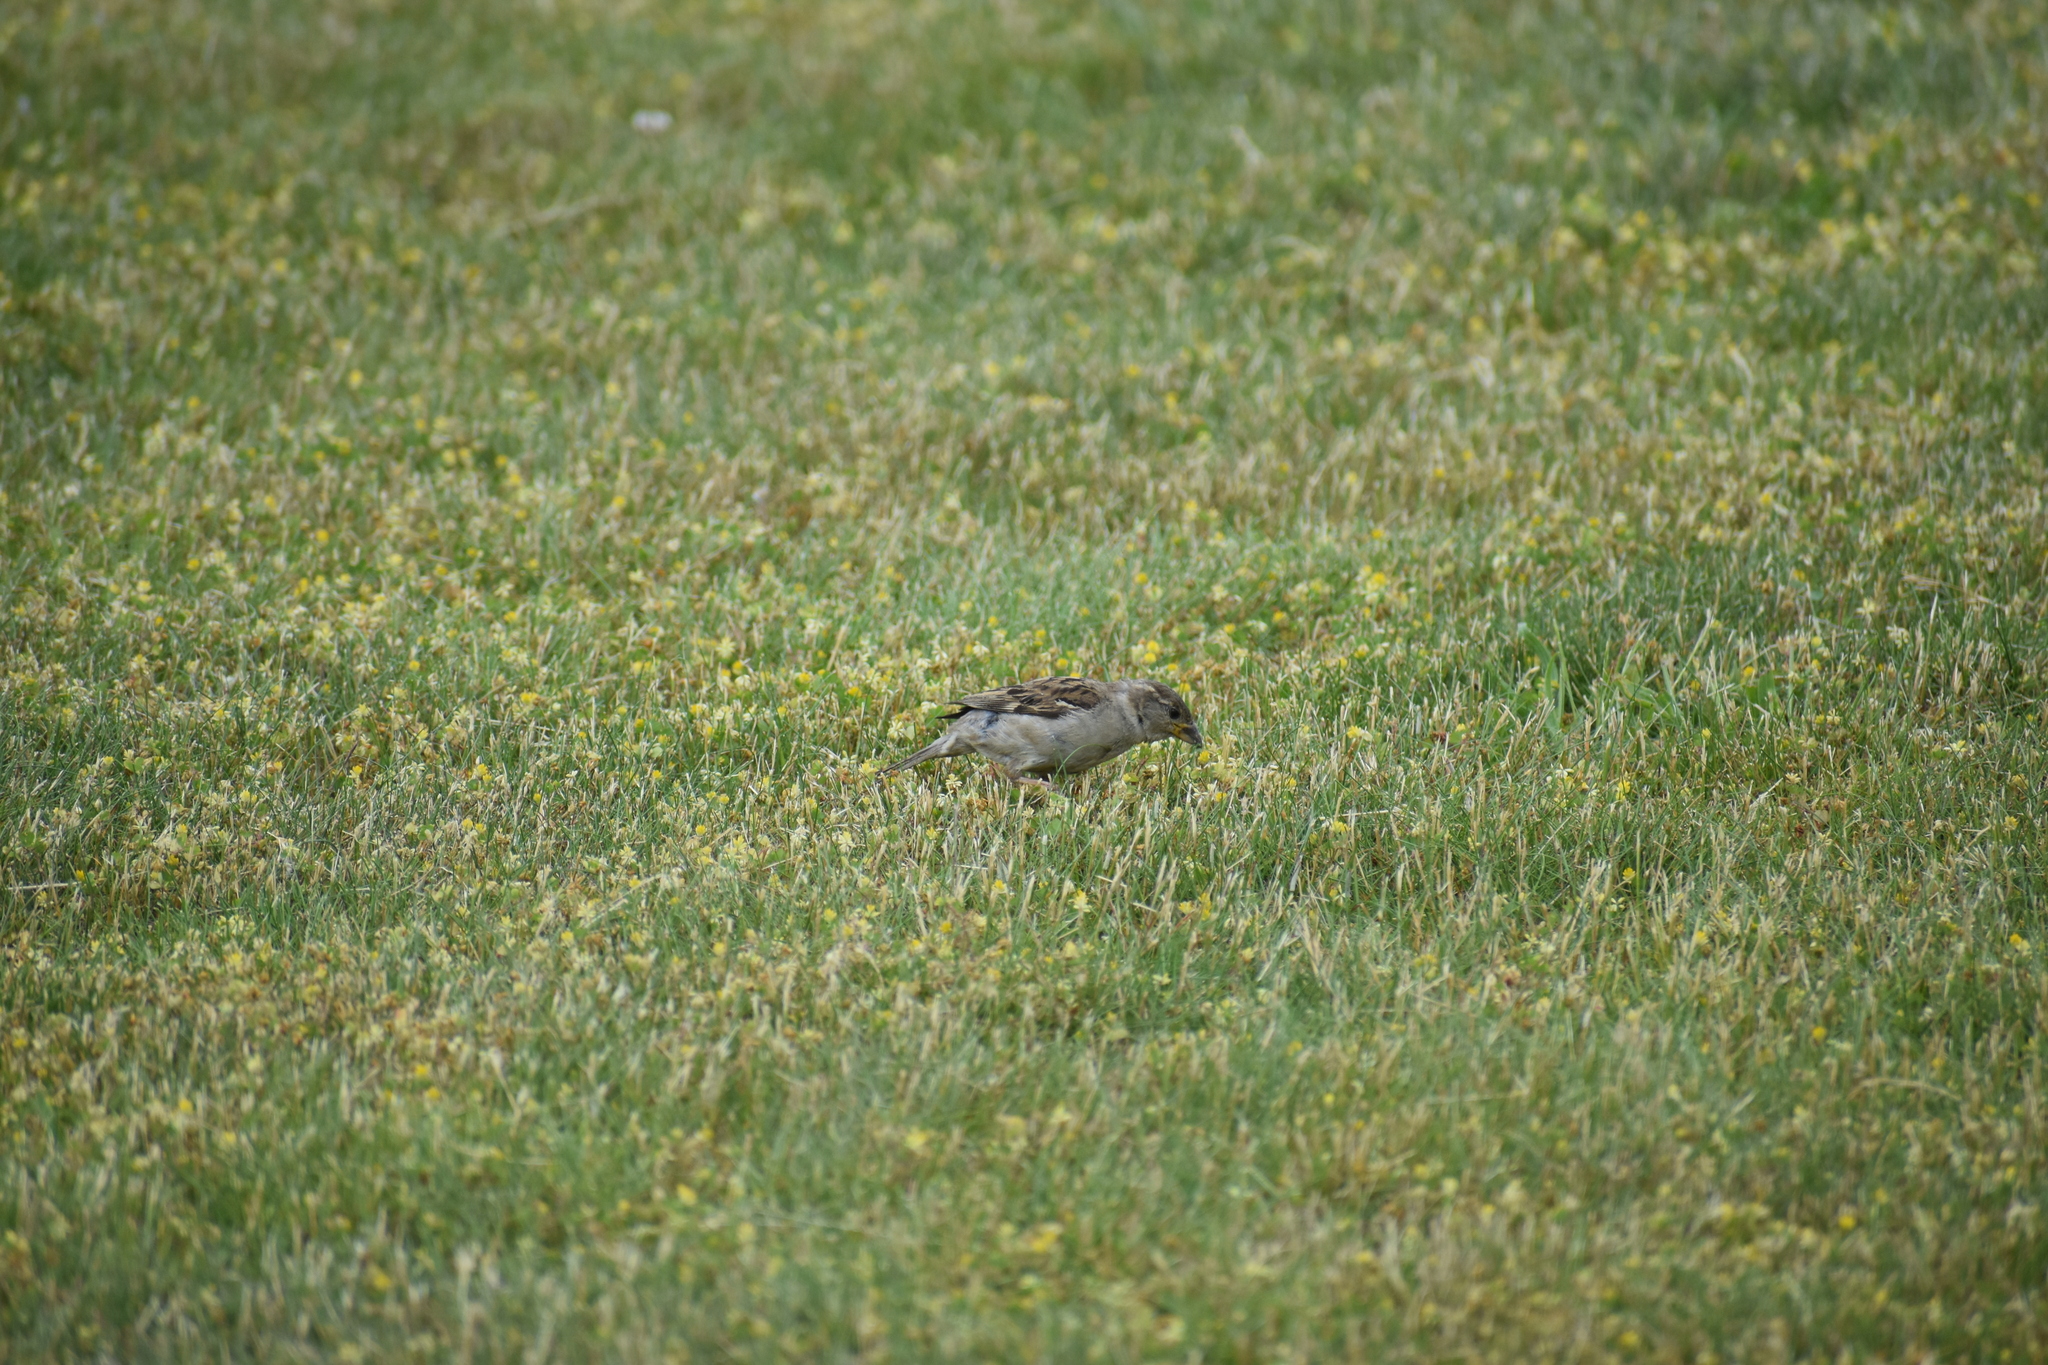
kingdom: Animalia
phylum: Chordata
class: Aves
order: Passeriformes
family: Passeridae
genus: Passer
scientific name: Passer domesticus
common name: House sparrow
